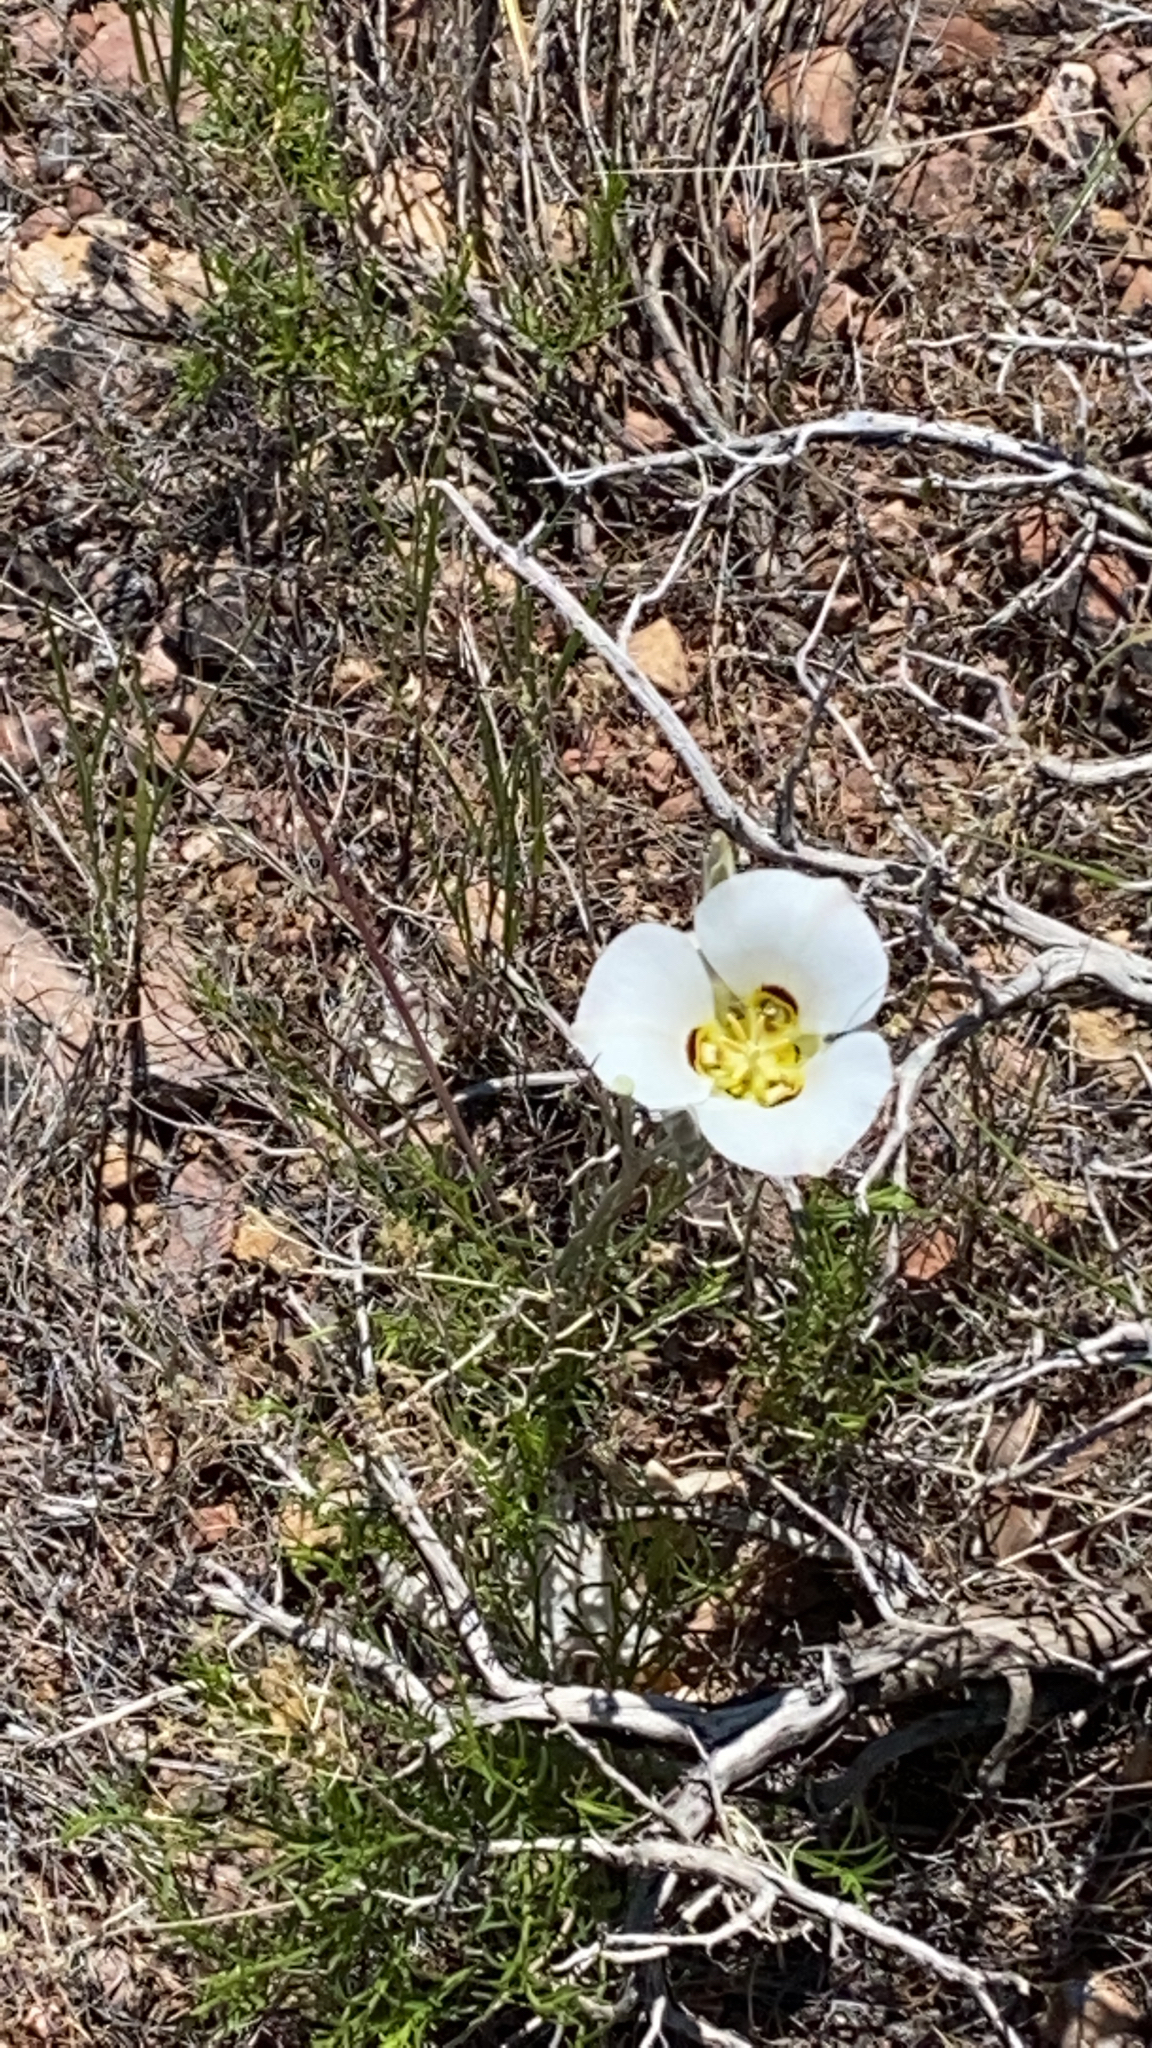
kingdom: Plantae
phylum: Tracheophyta
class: Liliopsida
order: Liliales
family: Liliaceae
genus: Calochortus
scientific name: Calochortus nuttallii
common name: Sego-lily
